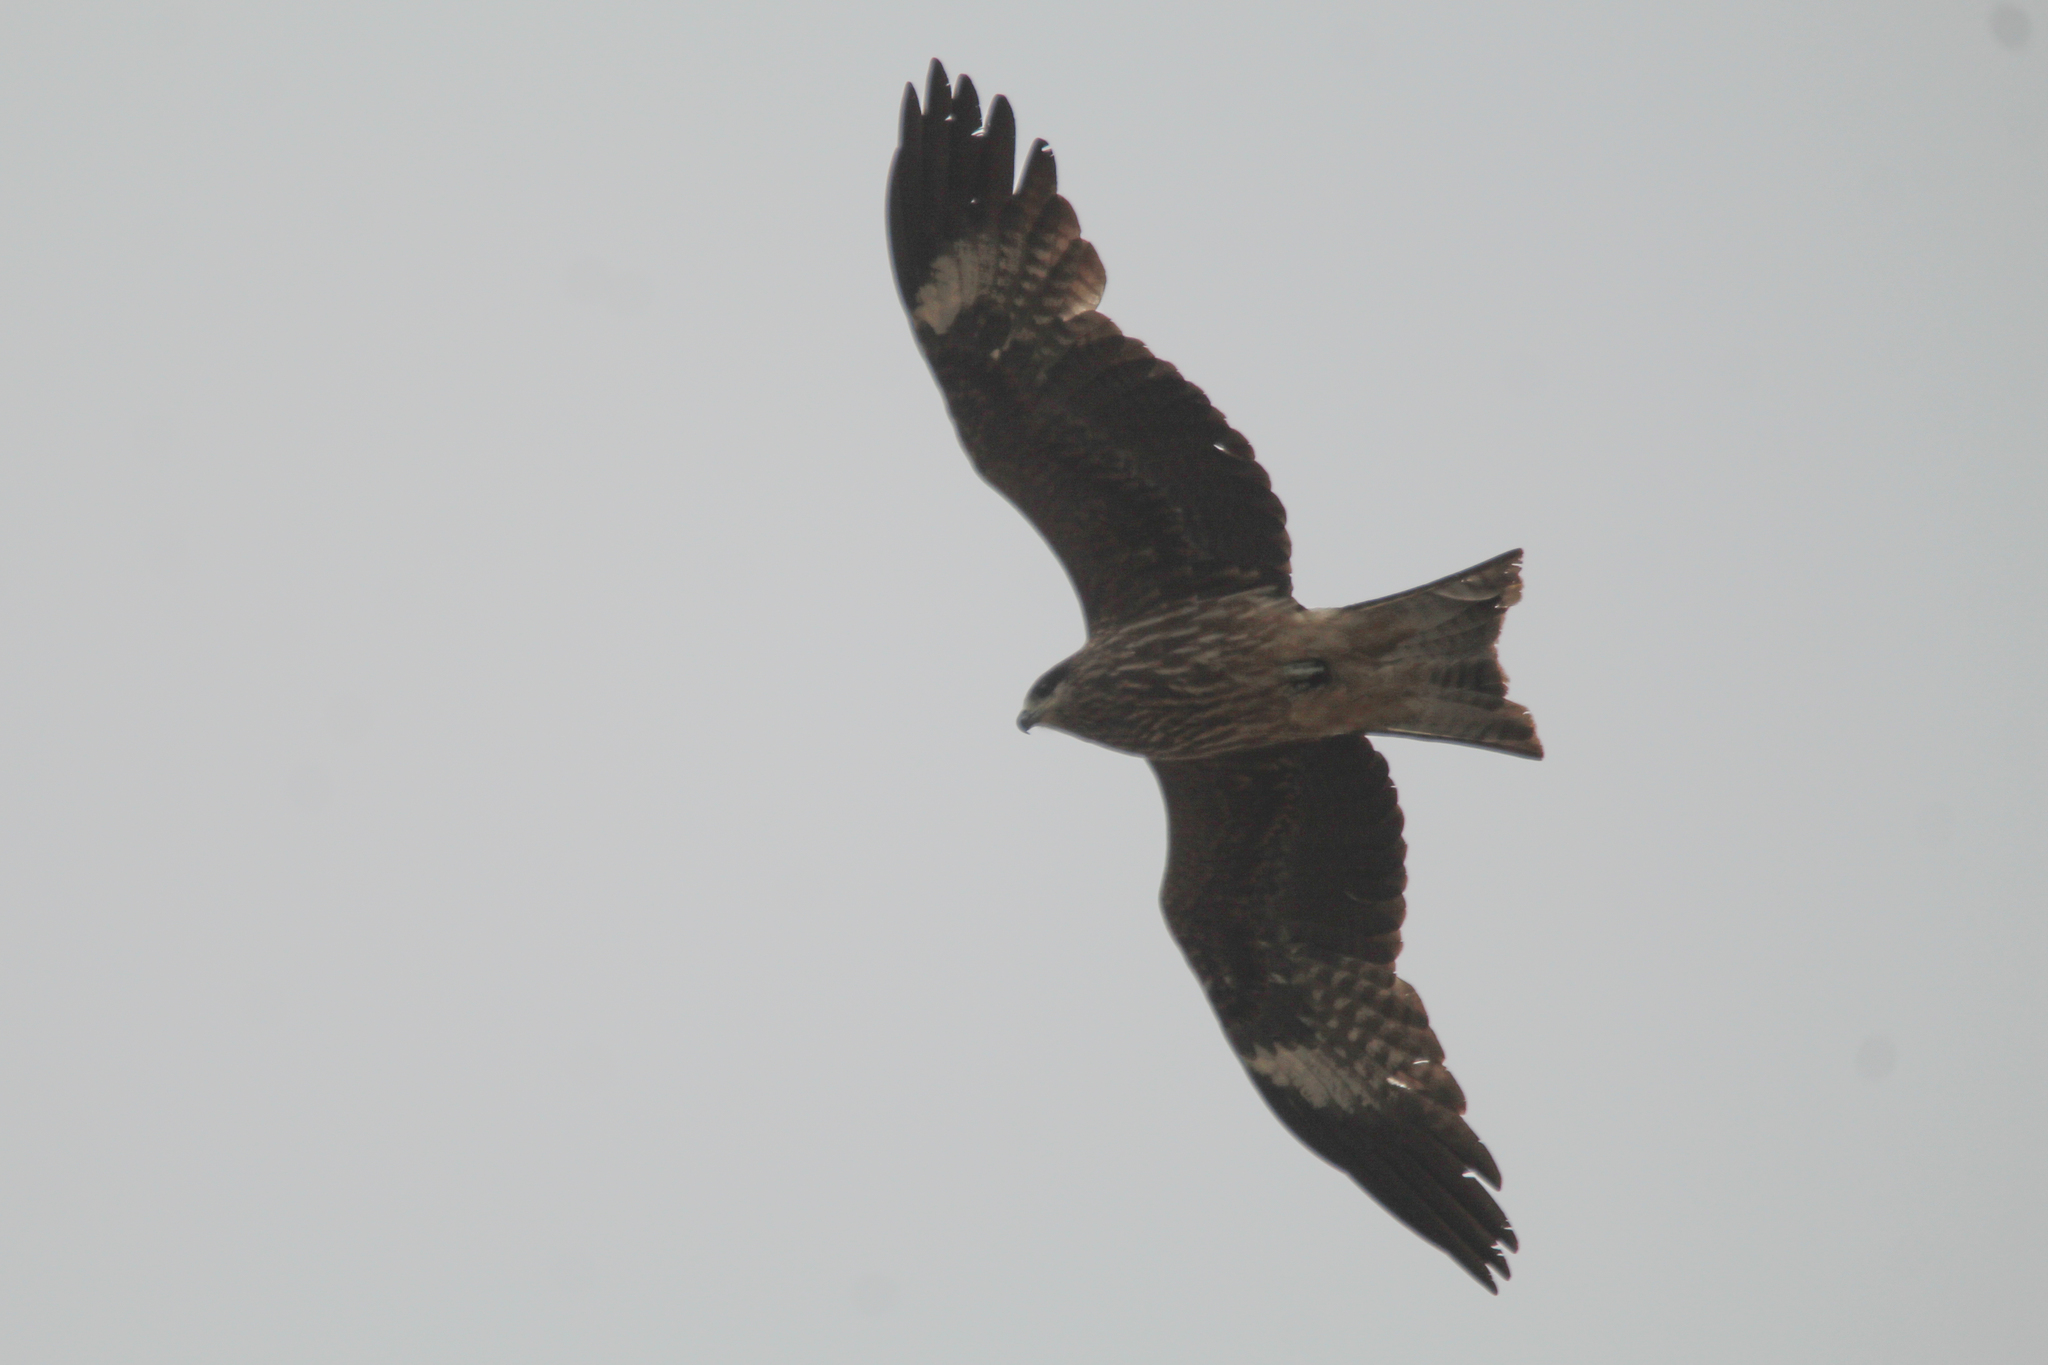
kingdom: Animalia
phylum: Chordata
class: Aves
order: Accipitriformes
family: Accipitridae
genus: Milvus
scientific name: Milvus migrans
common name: Black kite
